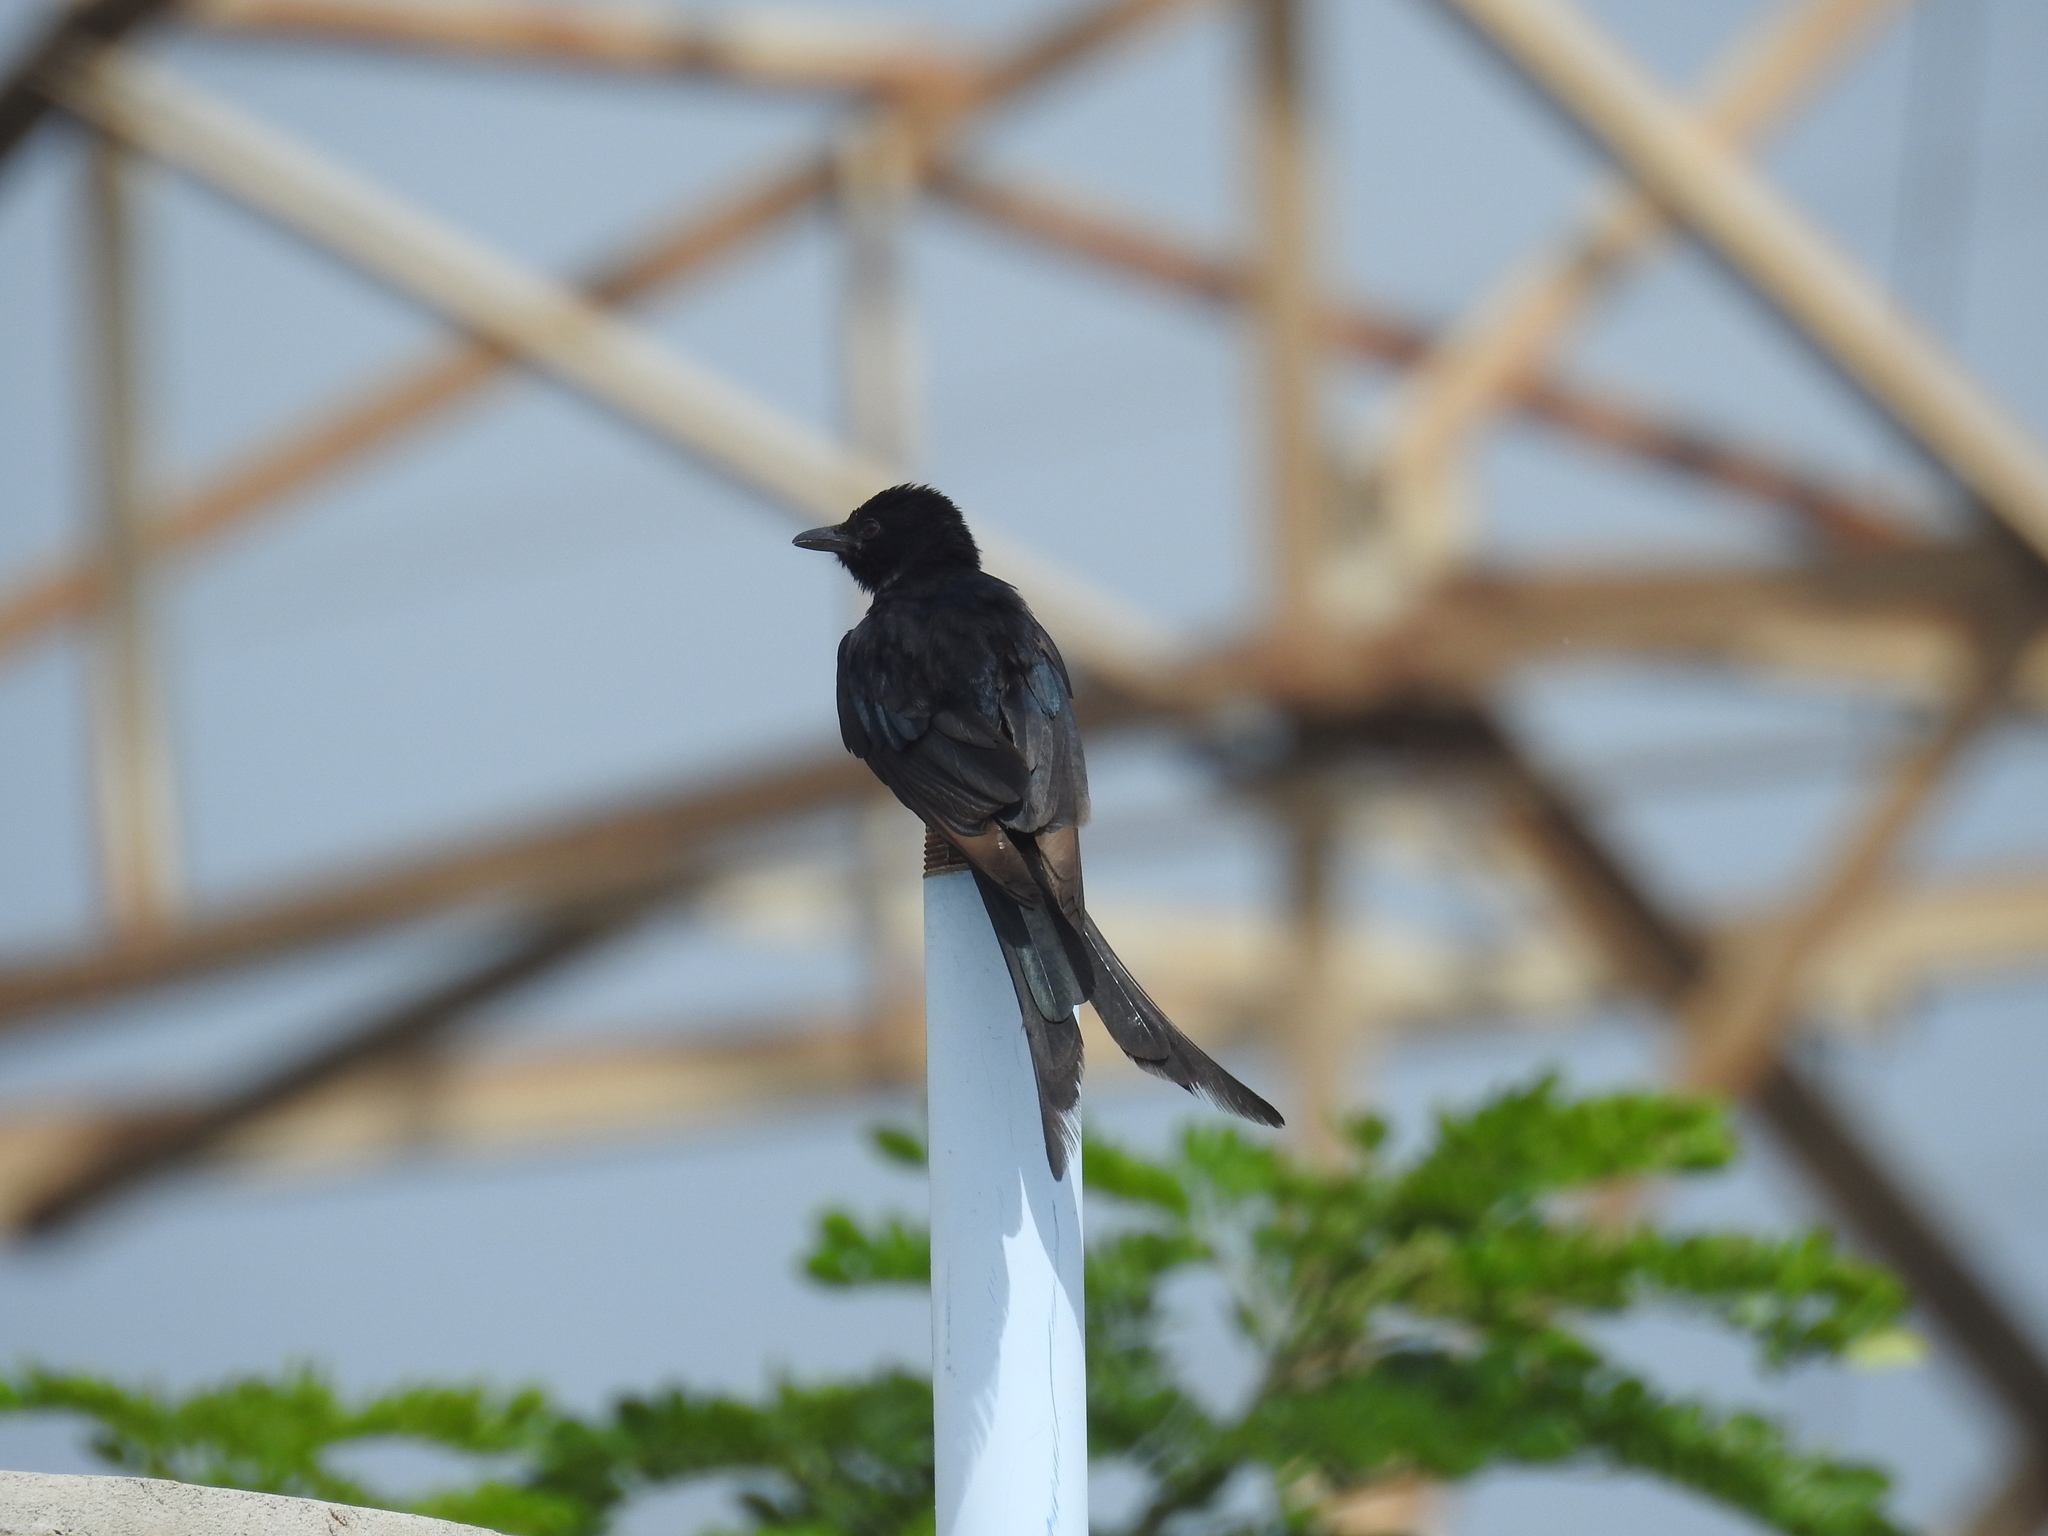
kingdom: Animalia
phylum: Chordata
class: Aves
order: Passeriformes
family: Dicruridae
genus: Dicrurus
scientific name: Dicrurus macrocercus
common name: Black drongo
